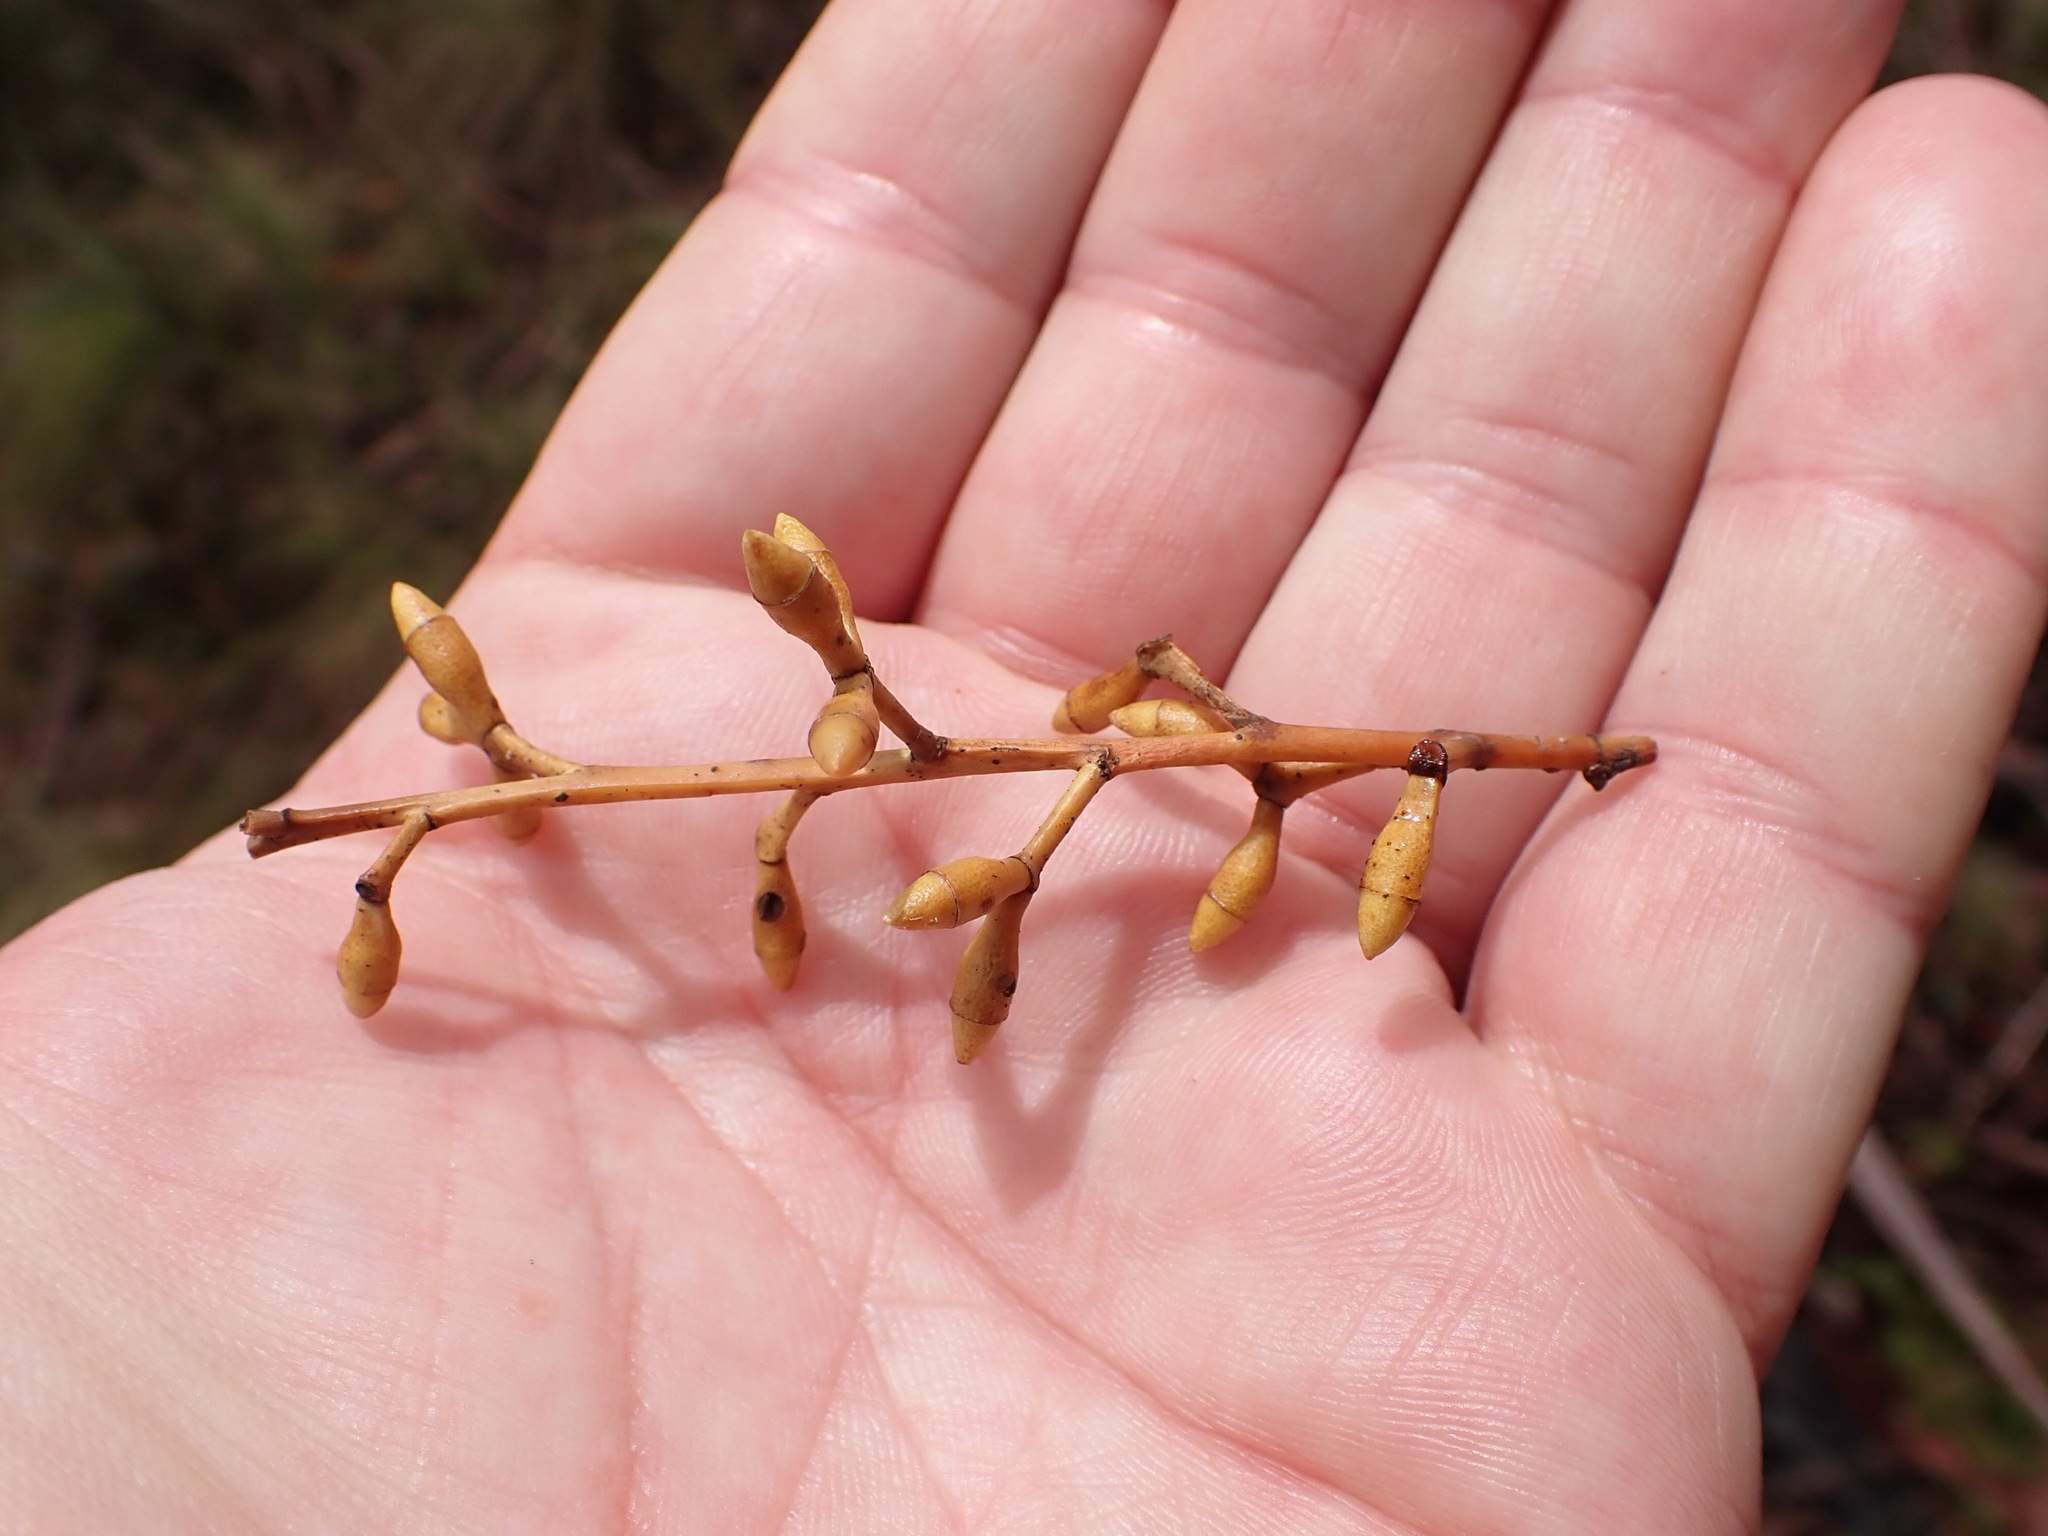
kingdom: Plantae
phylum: Tracheophyta
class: Magnoliopsida
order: Myrtales
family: Myrtaceae
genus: Eucalyptus
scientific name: Eucalyptus dalrympleana
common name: Broad-leaved kindlingbark
